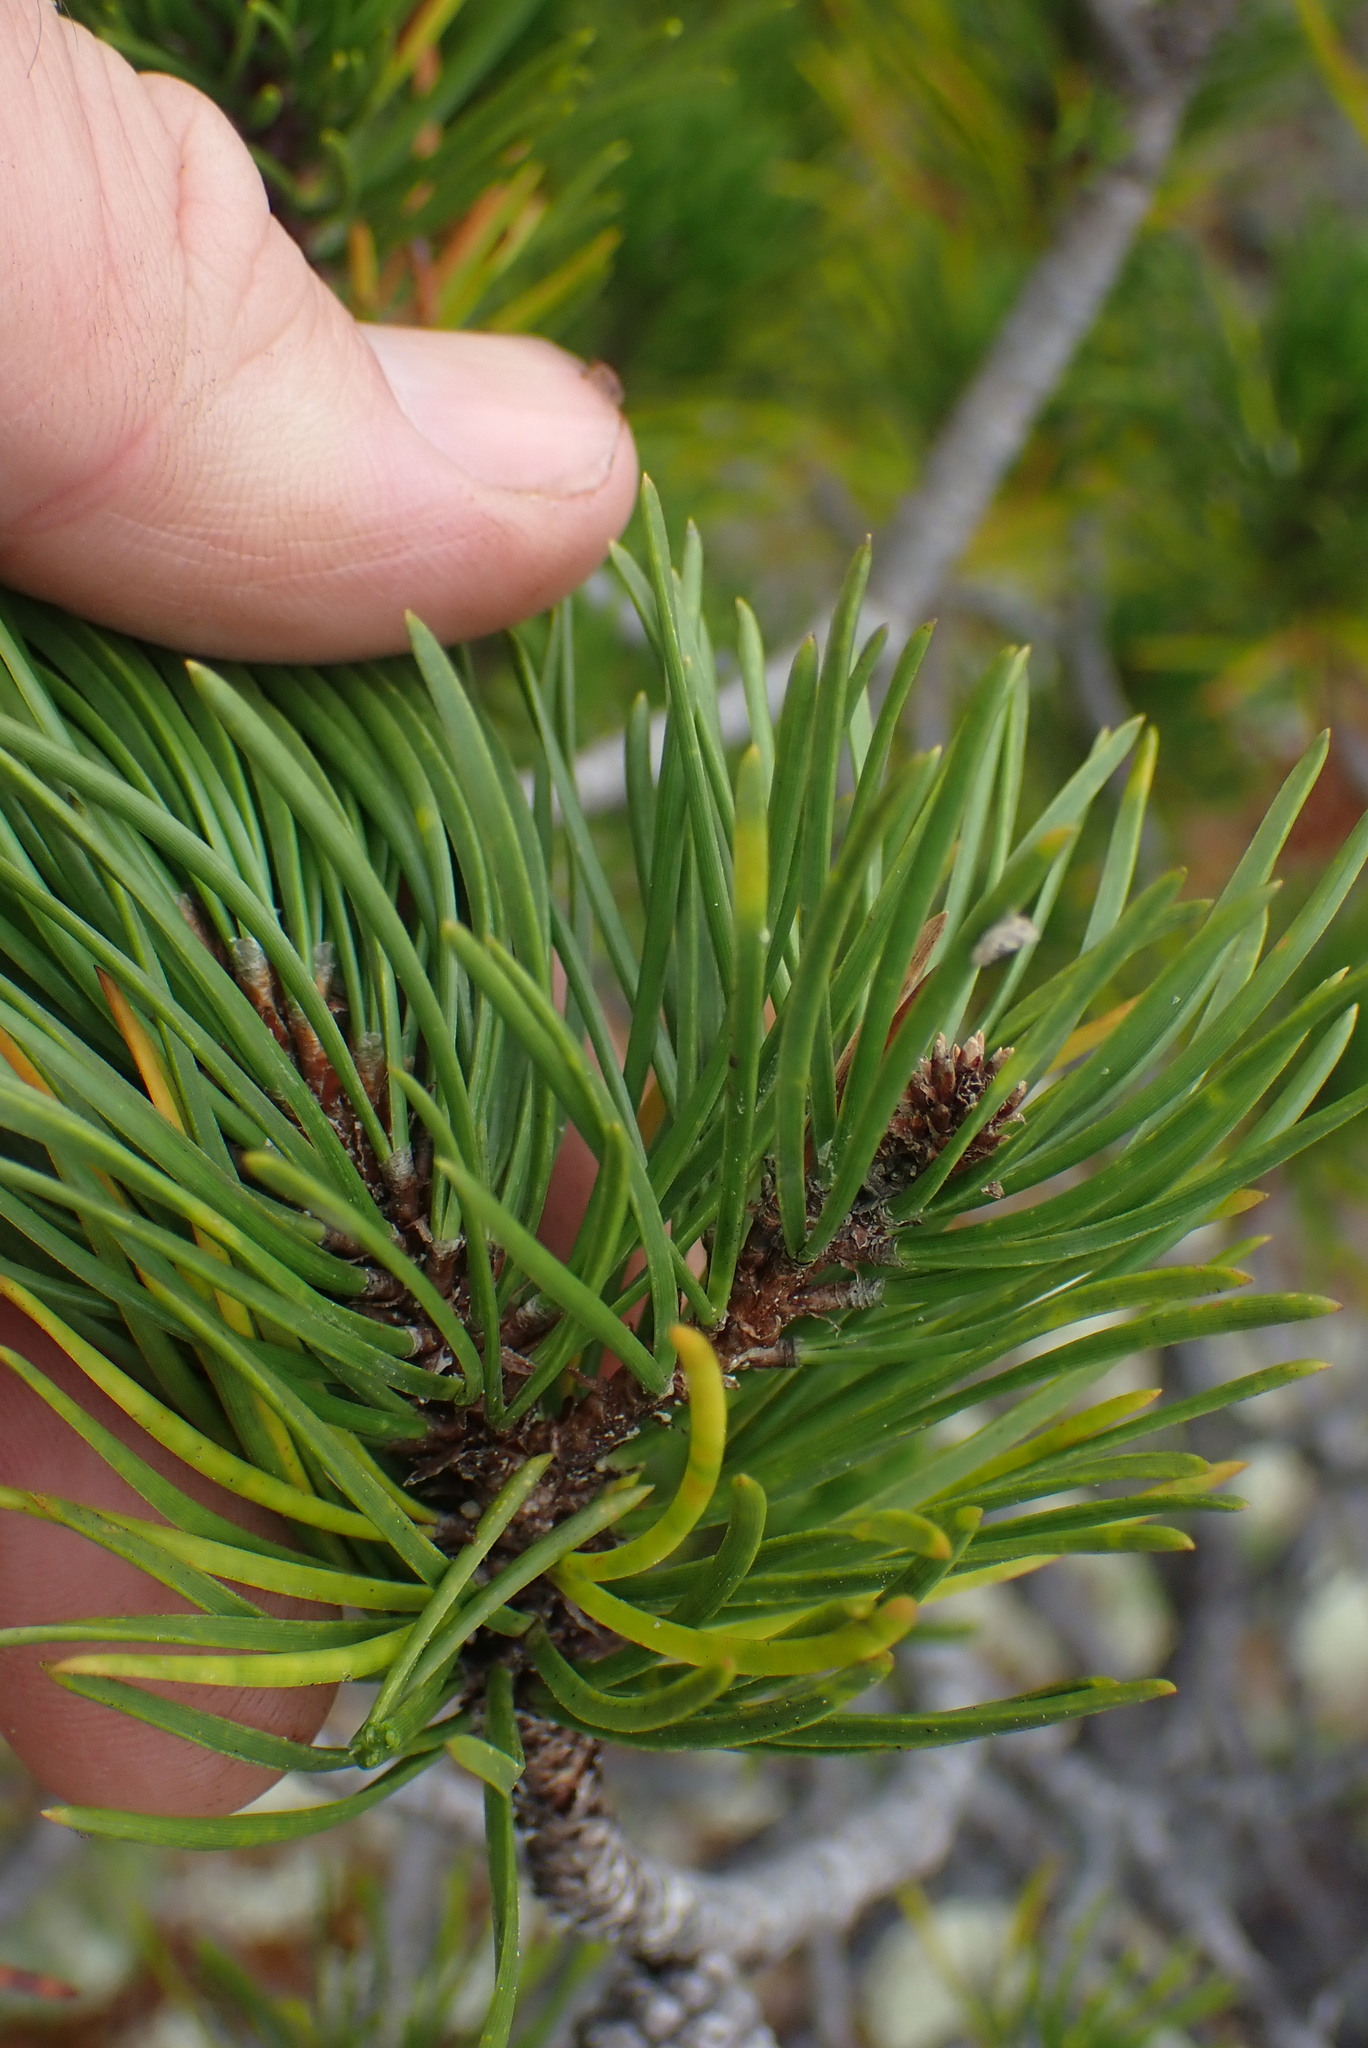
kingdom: Plantae
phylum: Tracheophyta
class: Pinopsida
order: Pinales
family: Pinaceae
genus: Pinus
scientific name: Pinus contorta
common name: Lodgepole pine
